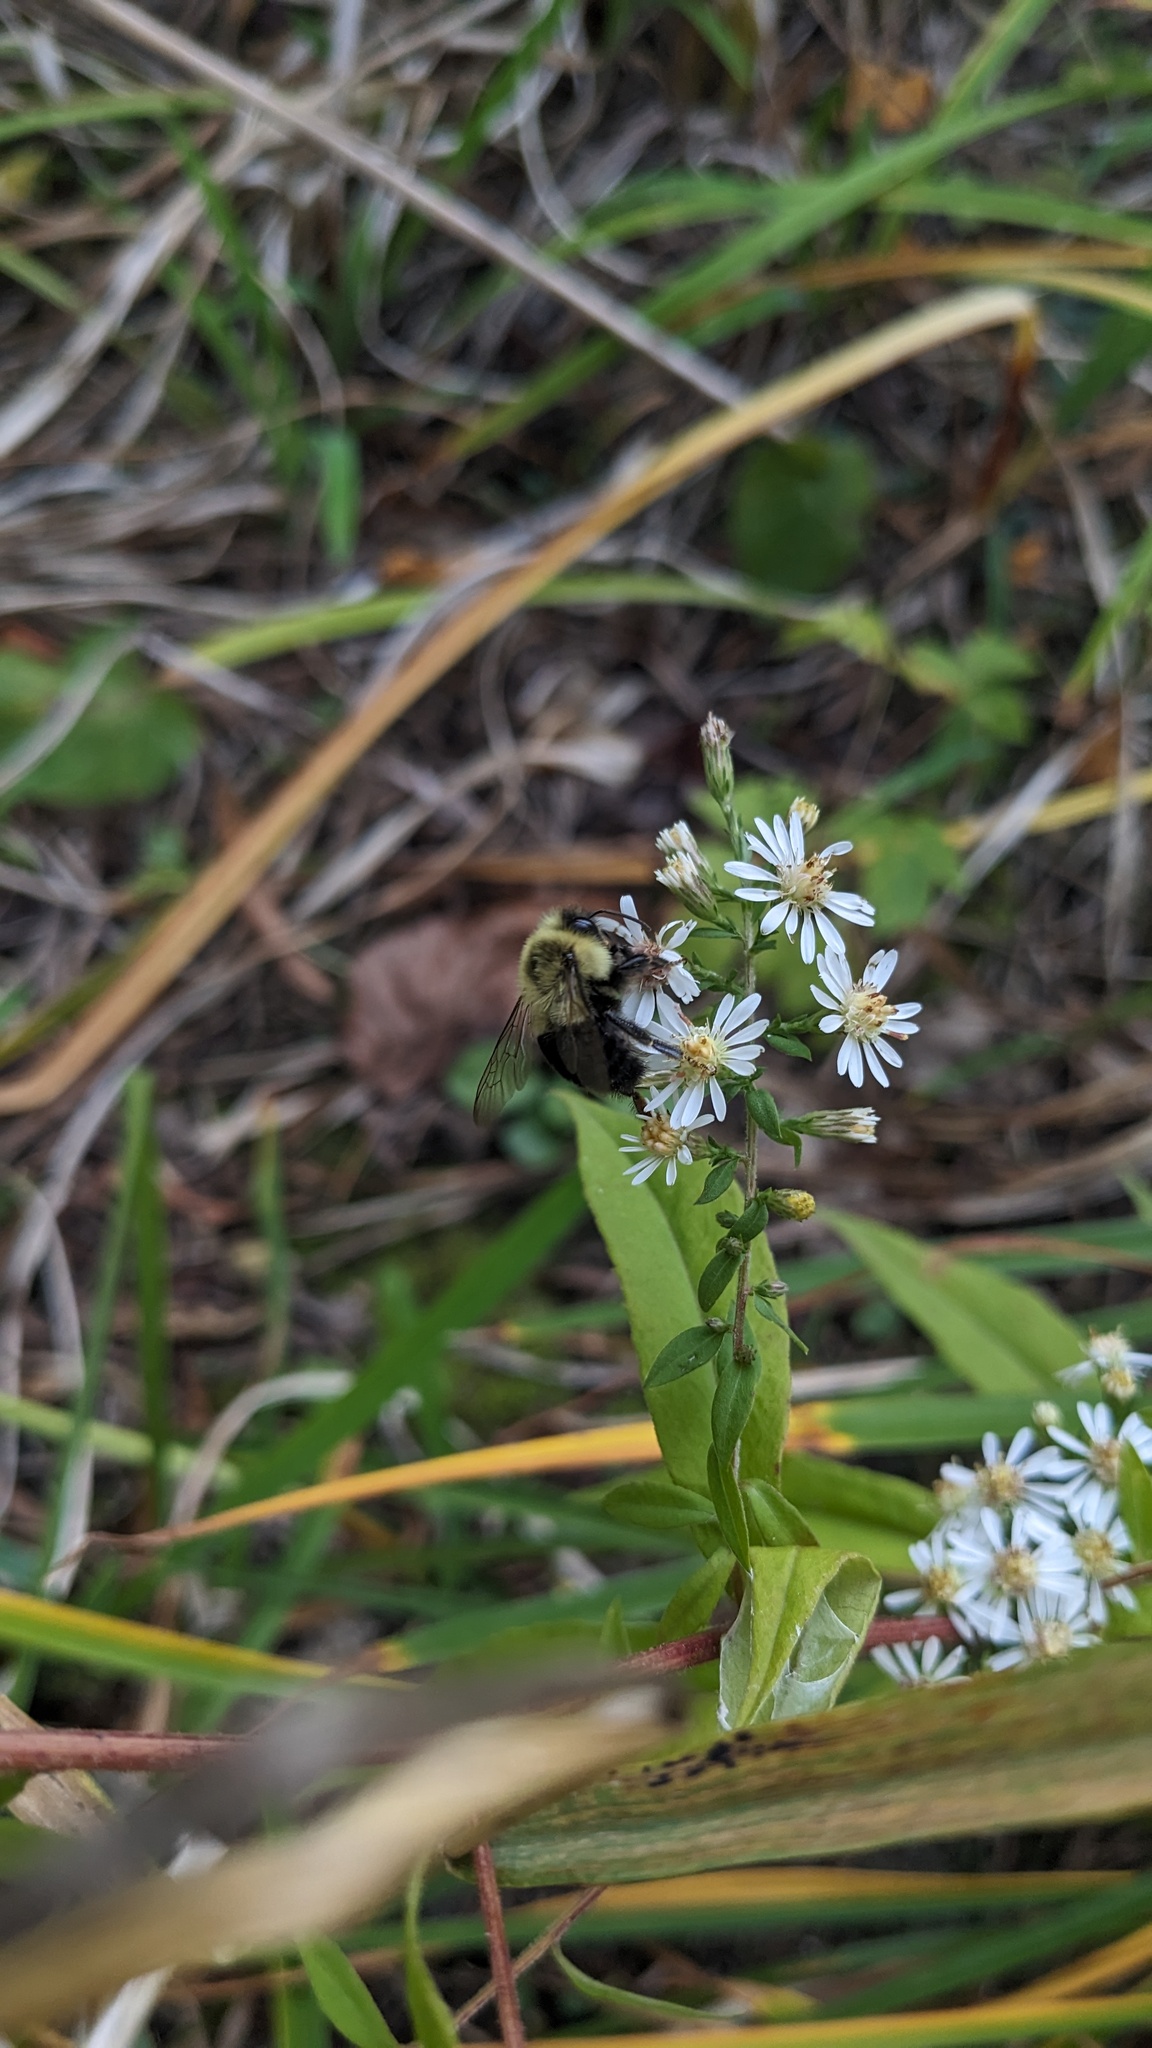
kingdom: Animalia
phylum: Arthropoda
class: Insecta
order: Hymenoptera
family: Apidae
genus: Bombus
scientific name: Bombus impatiens
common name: Common eastern bumble bee
